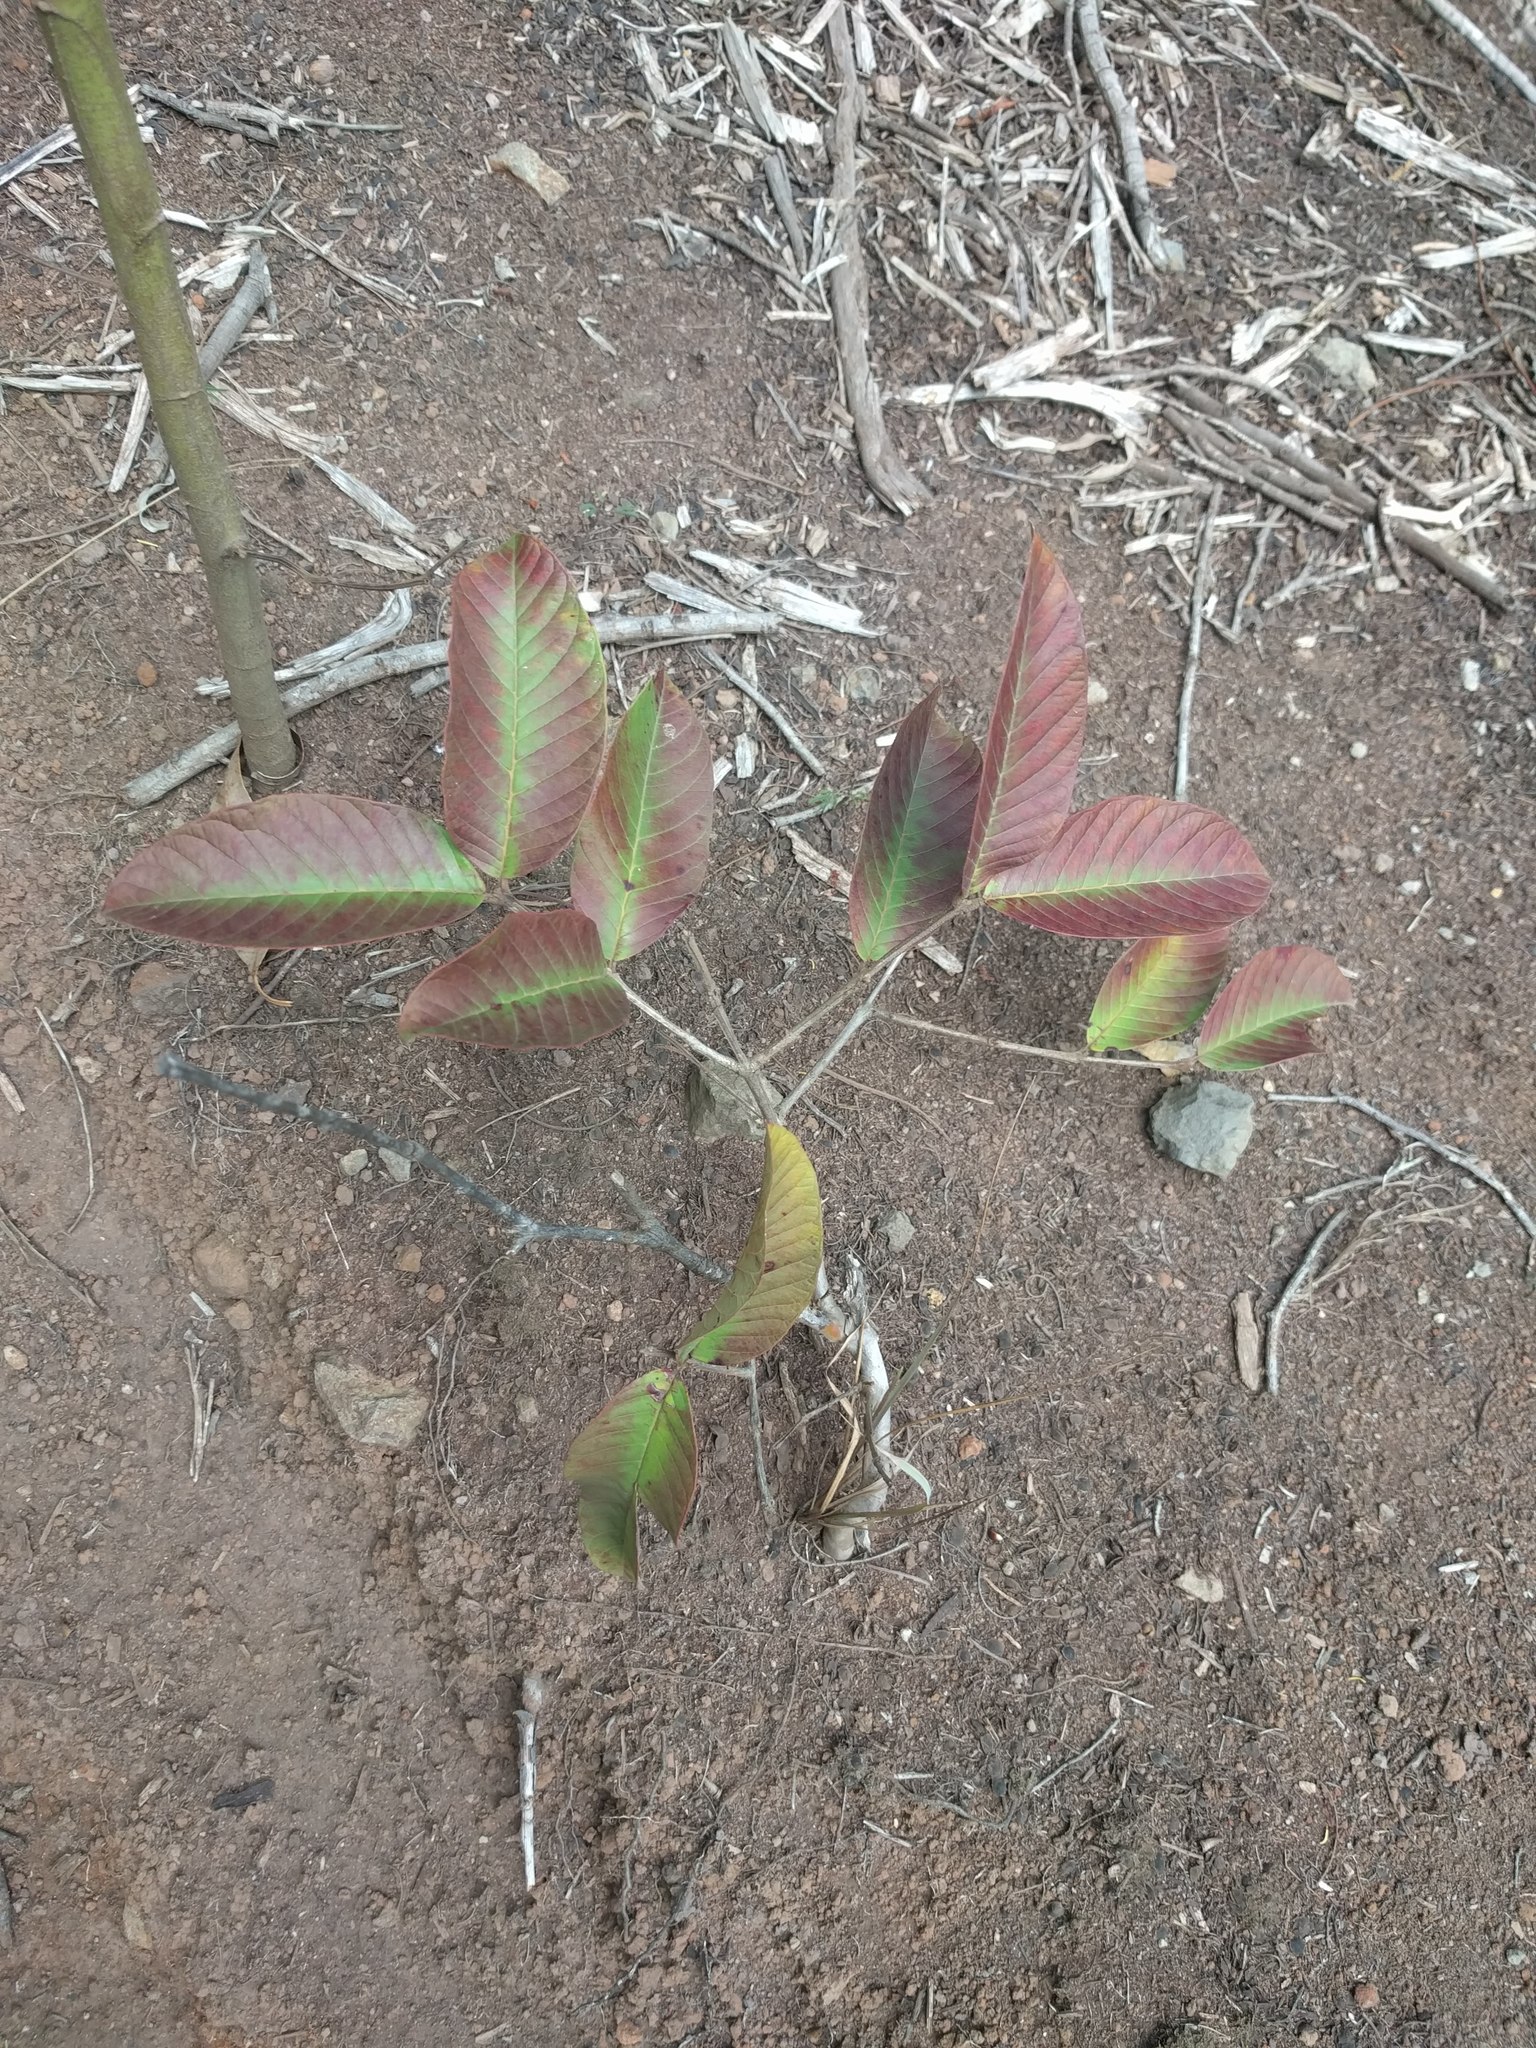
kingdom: Plantae
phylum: Tracheophyta
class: Magnoliopsida
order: Myrtales
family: Myrtaceae
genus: Psidium
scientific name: Psidium guajava
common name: Guava
